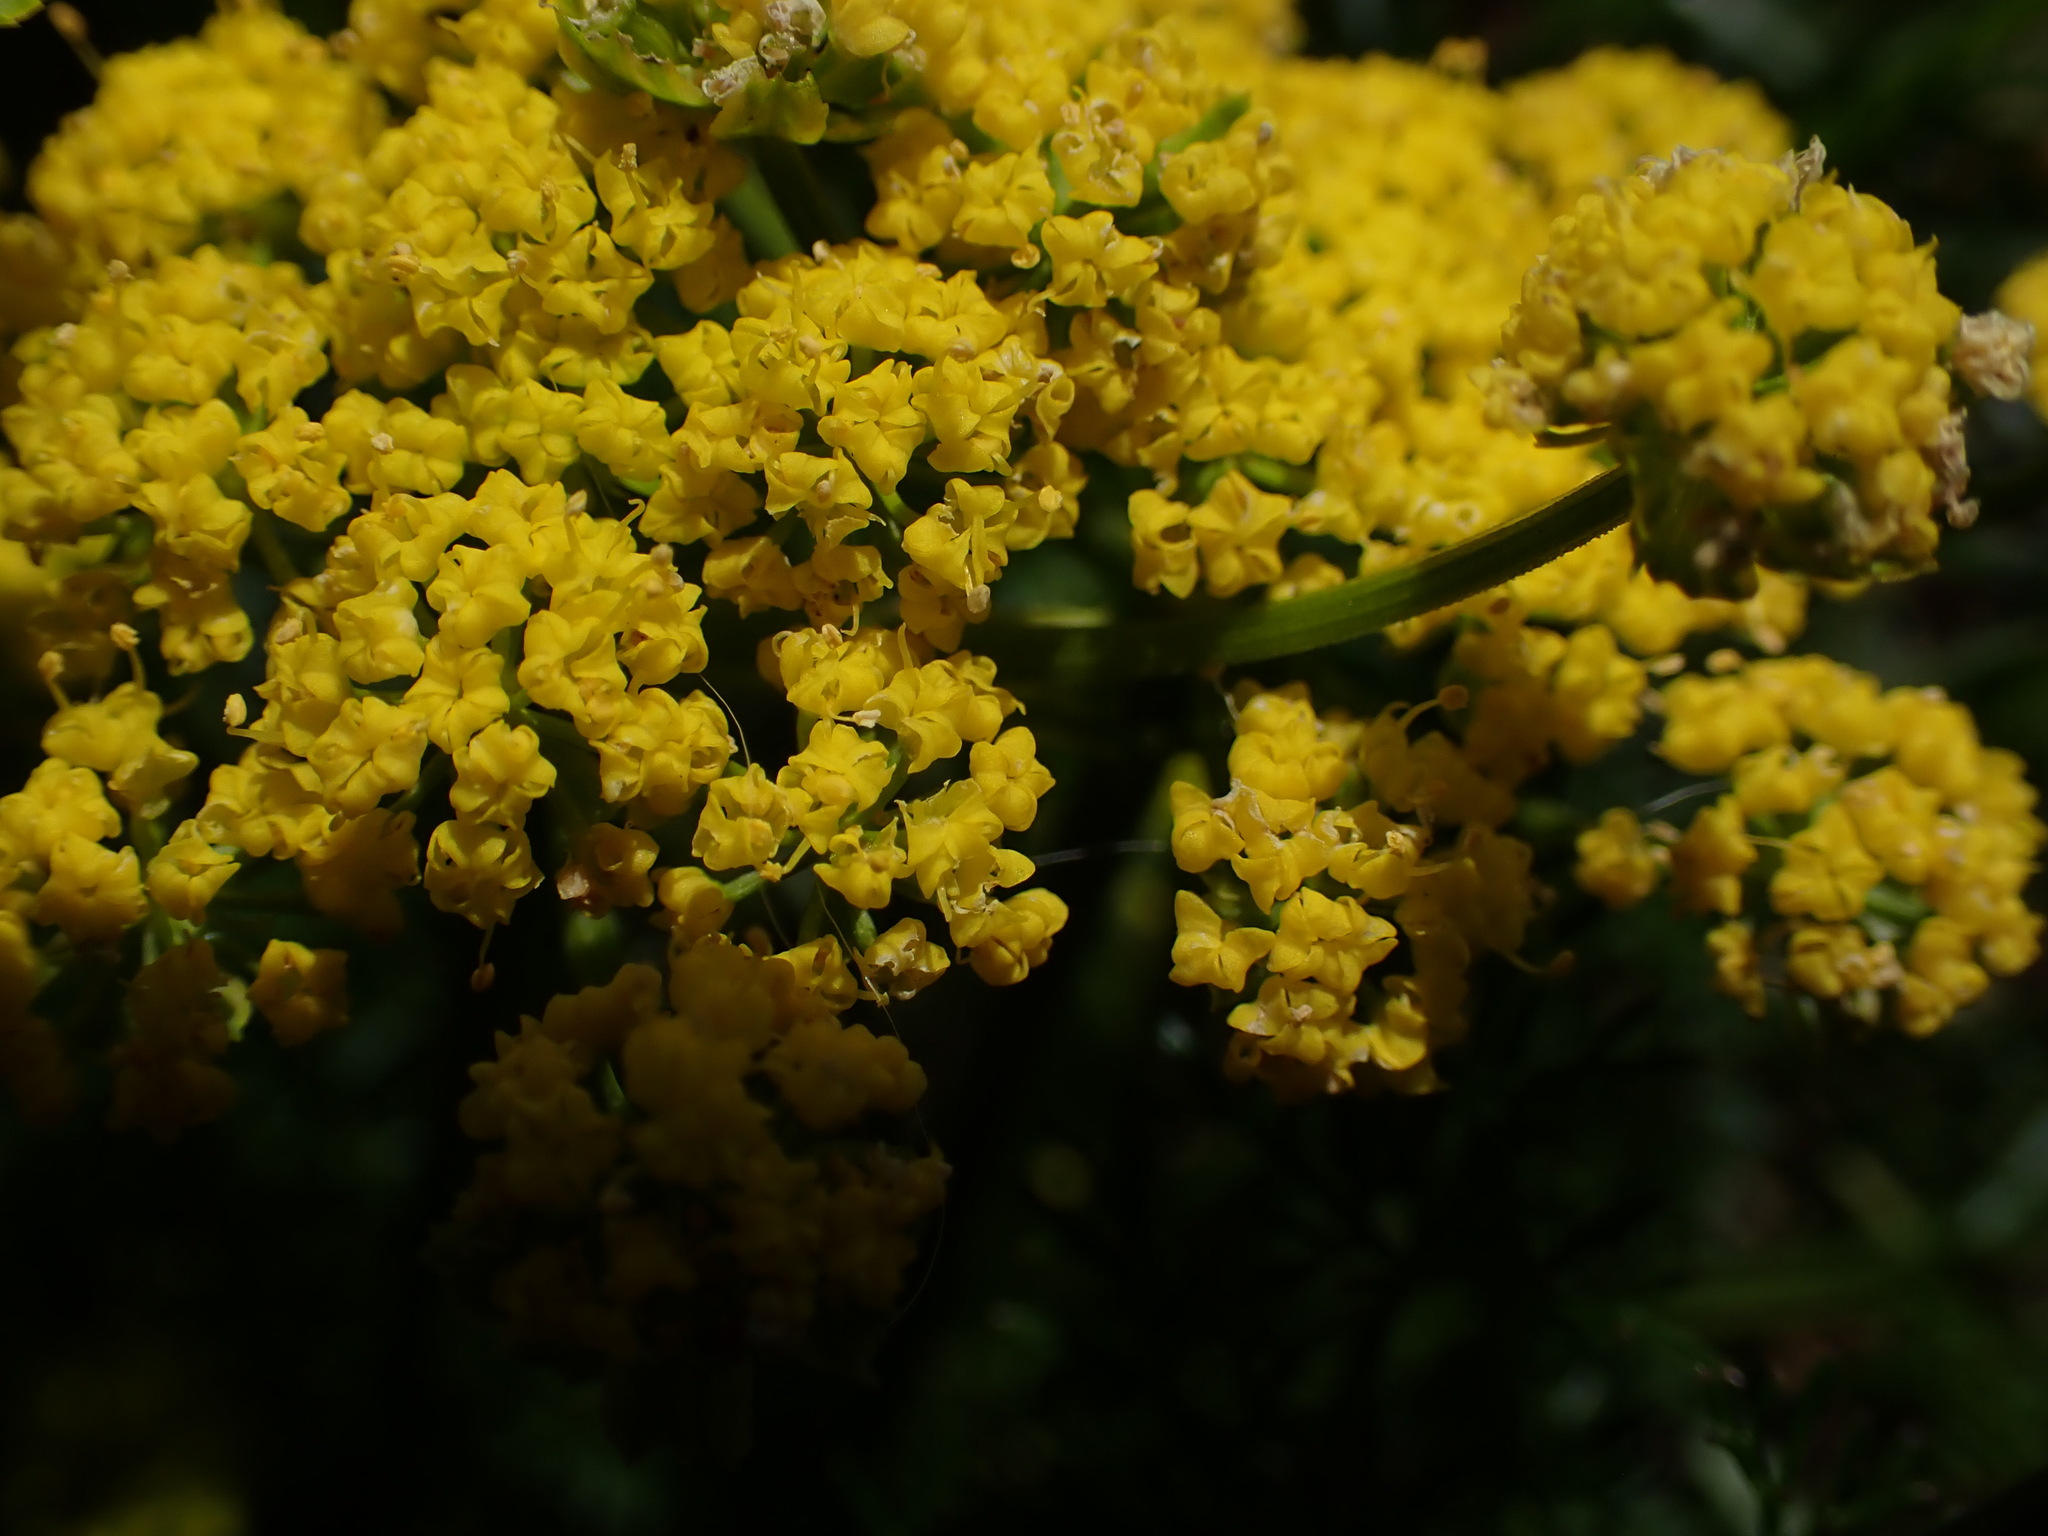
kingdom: Plantae
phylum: Tracheophyta
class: Magnoliopsida
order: Apiales
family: Apiaceae
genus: Lomatium
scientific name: Lomatium utriculatum
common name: Fine-leaf desert-parsley
